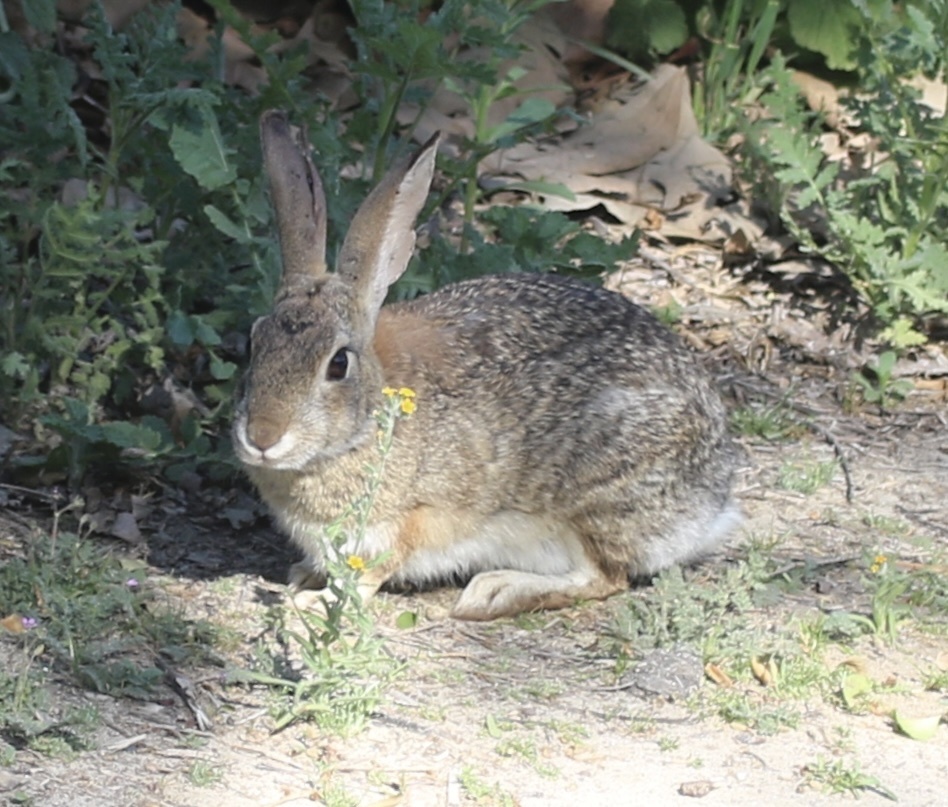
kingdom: Animalia
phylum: Chordata
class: Mammalia
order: Lagomorpha
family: Leporidae
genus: Sylvilagus
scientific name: Sylvilagus audubonii
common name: Desert cottontail
